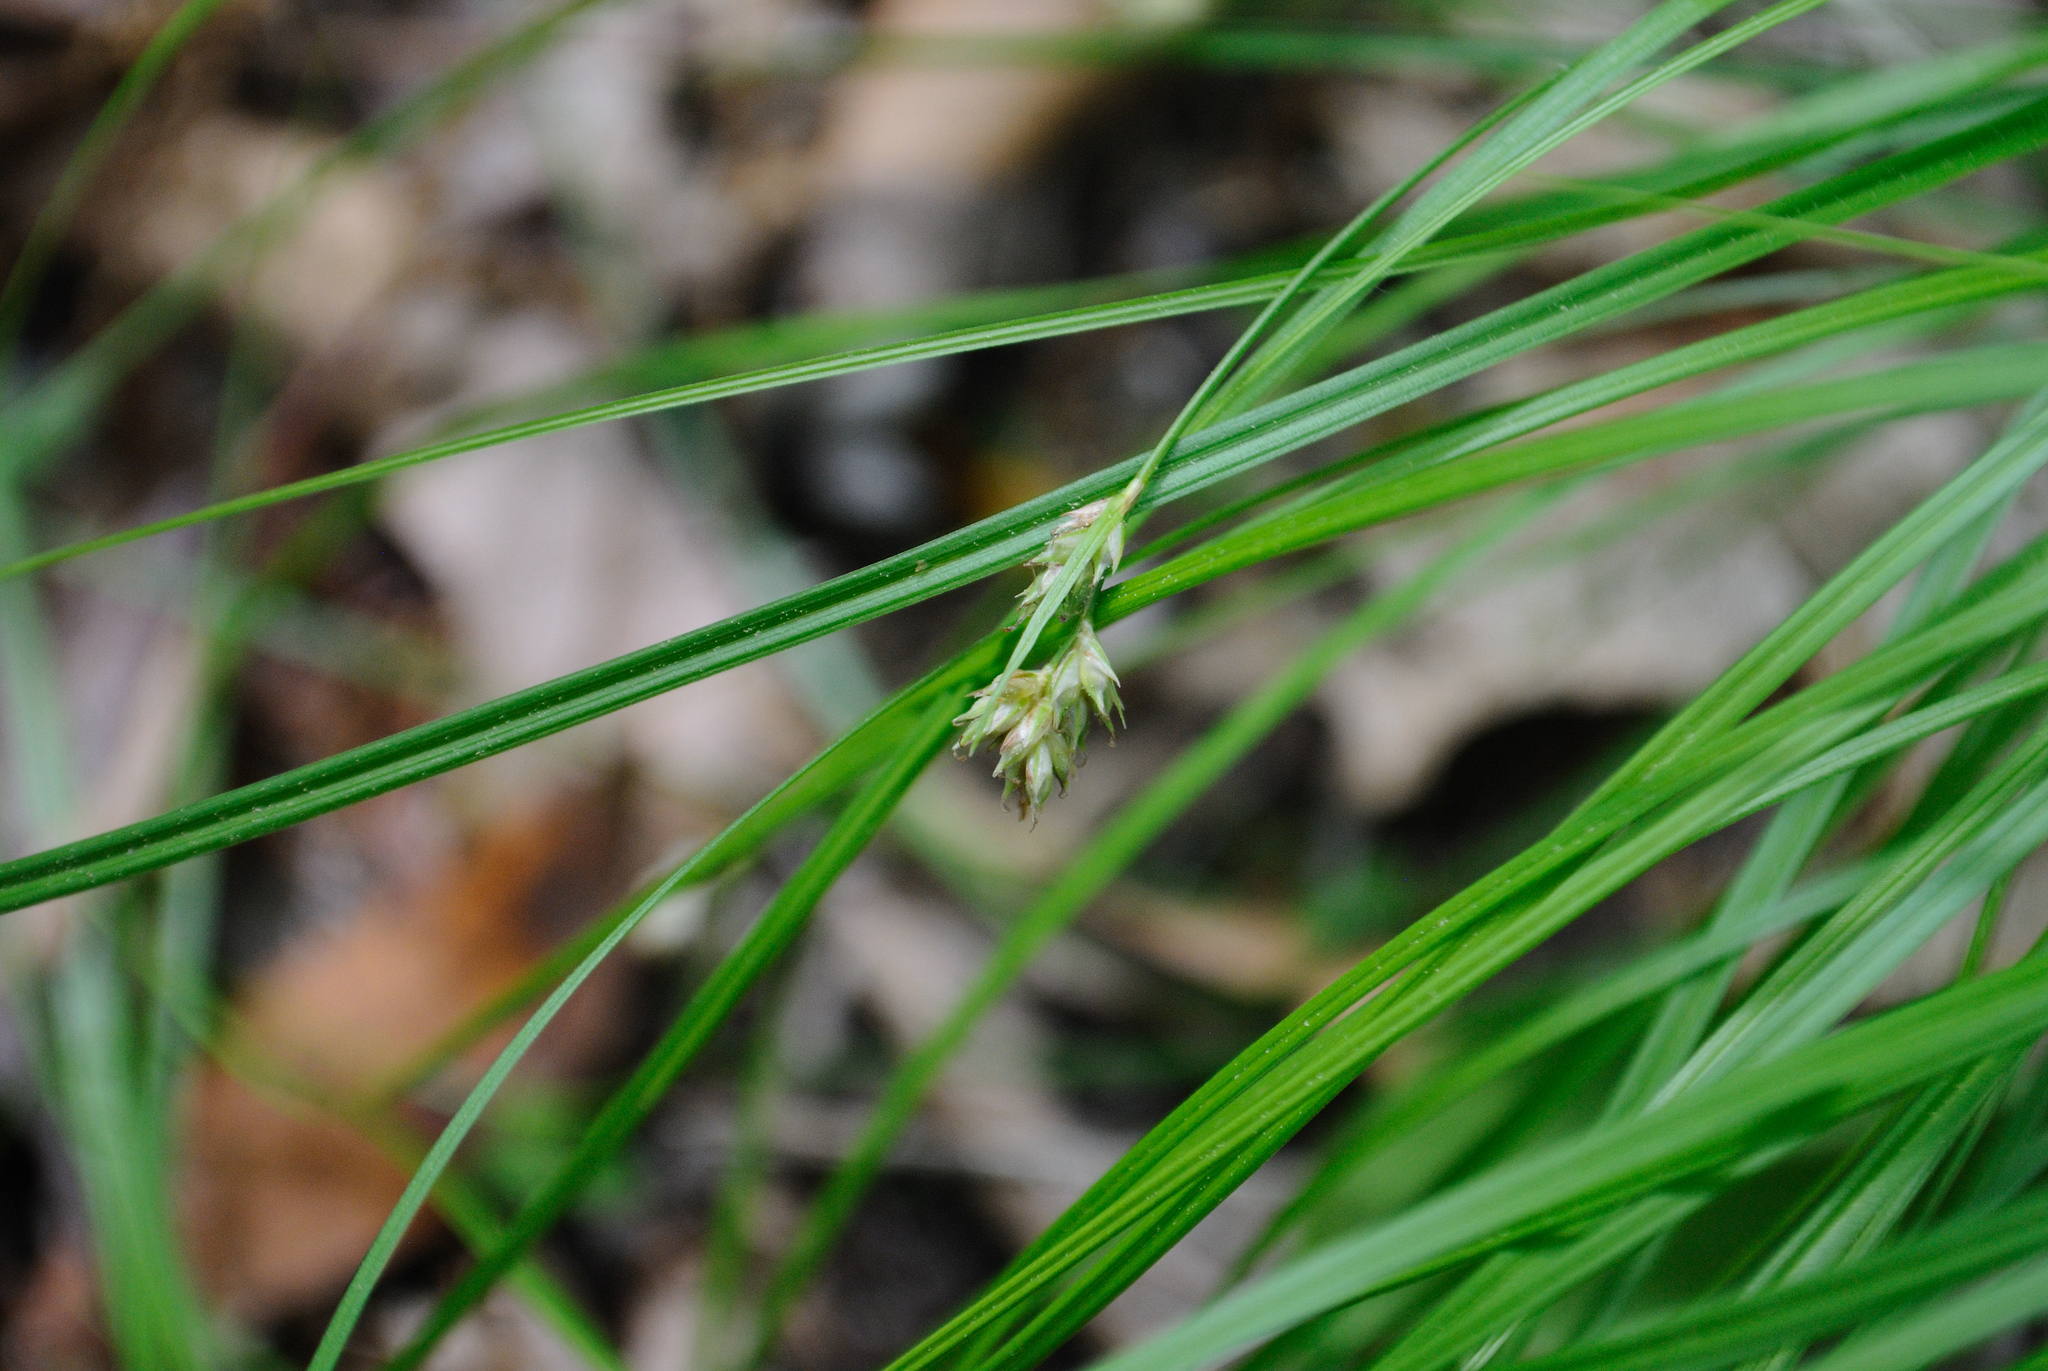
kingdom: Plantae
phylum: Tracheophyta
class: Liliopsida
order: Poales
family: Cyperaceae
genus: Carex
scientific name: Carex albicans
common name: Bellow-beaked sedge
